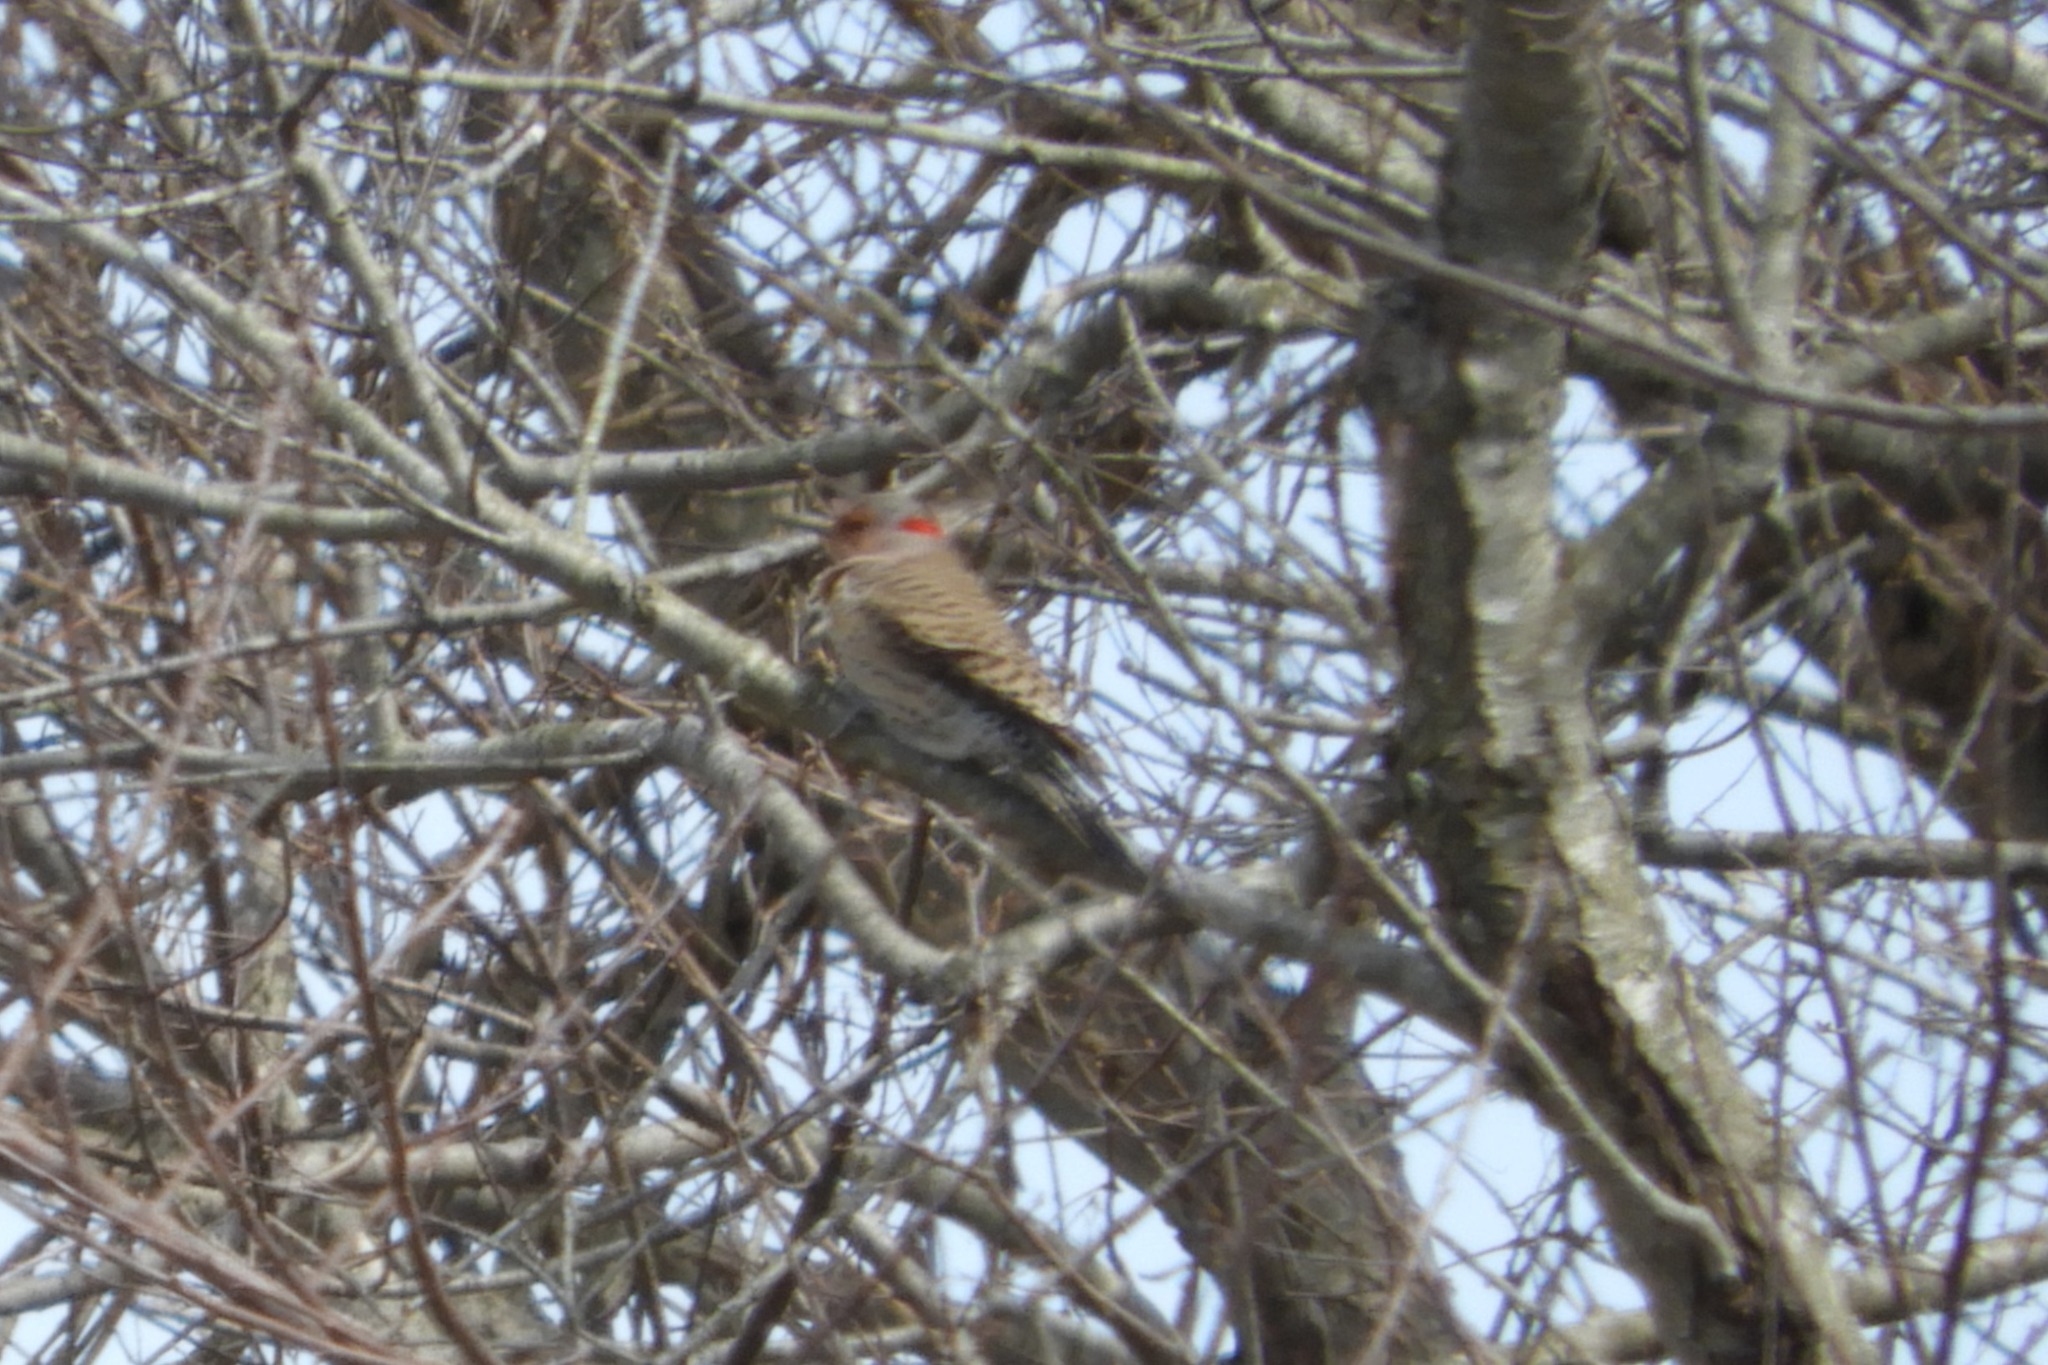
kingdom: Animalia
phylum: Chordata
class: Aves
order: Piciformes
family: Picidae
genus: Colaptes
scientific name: Colaptes auratus
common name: Northern flicker
